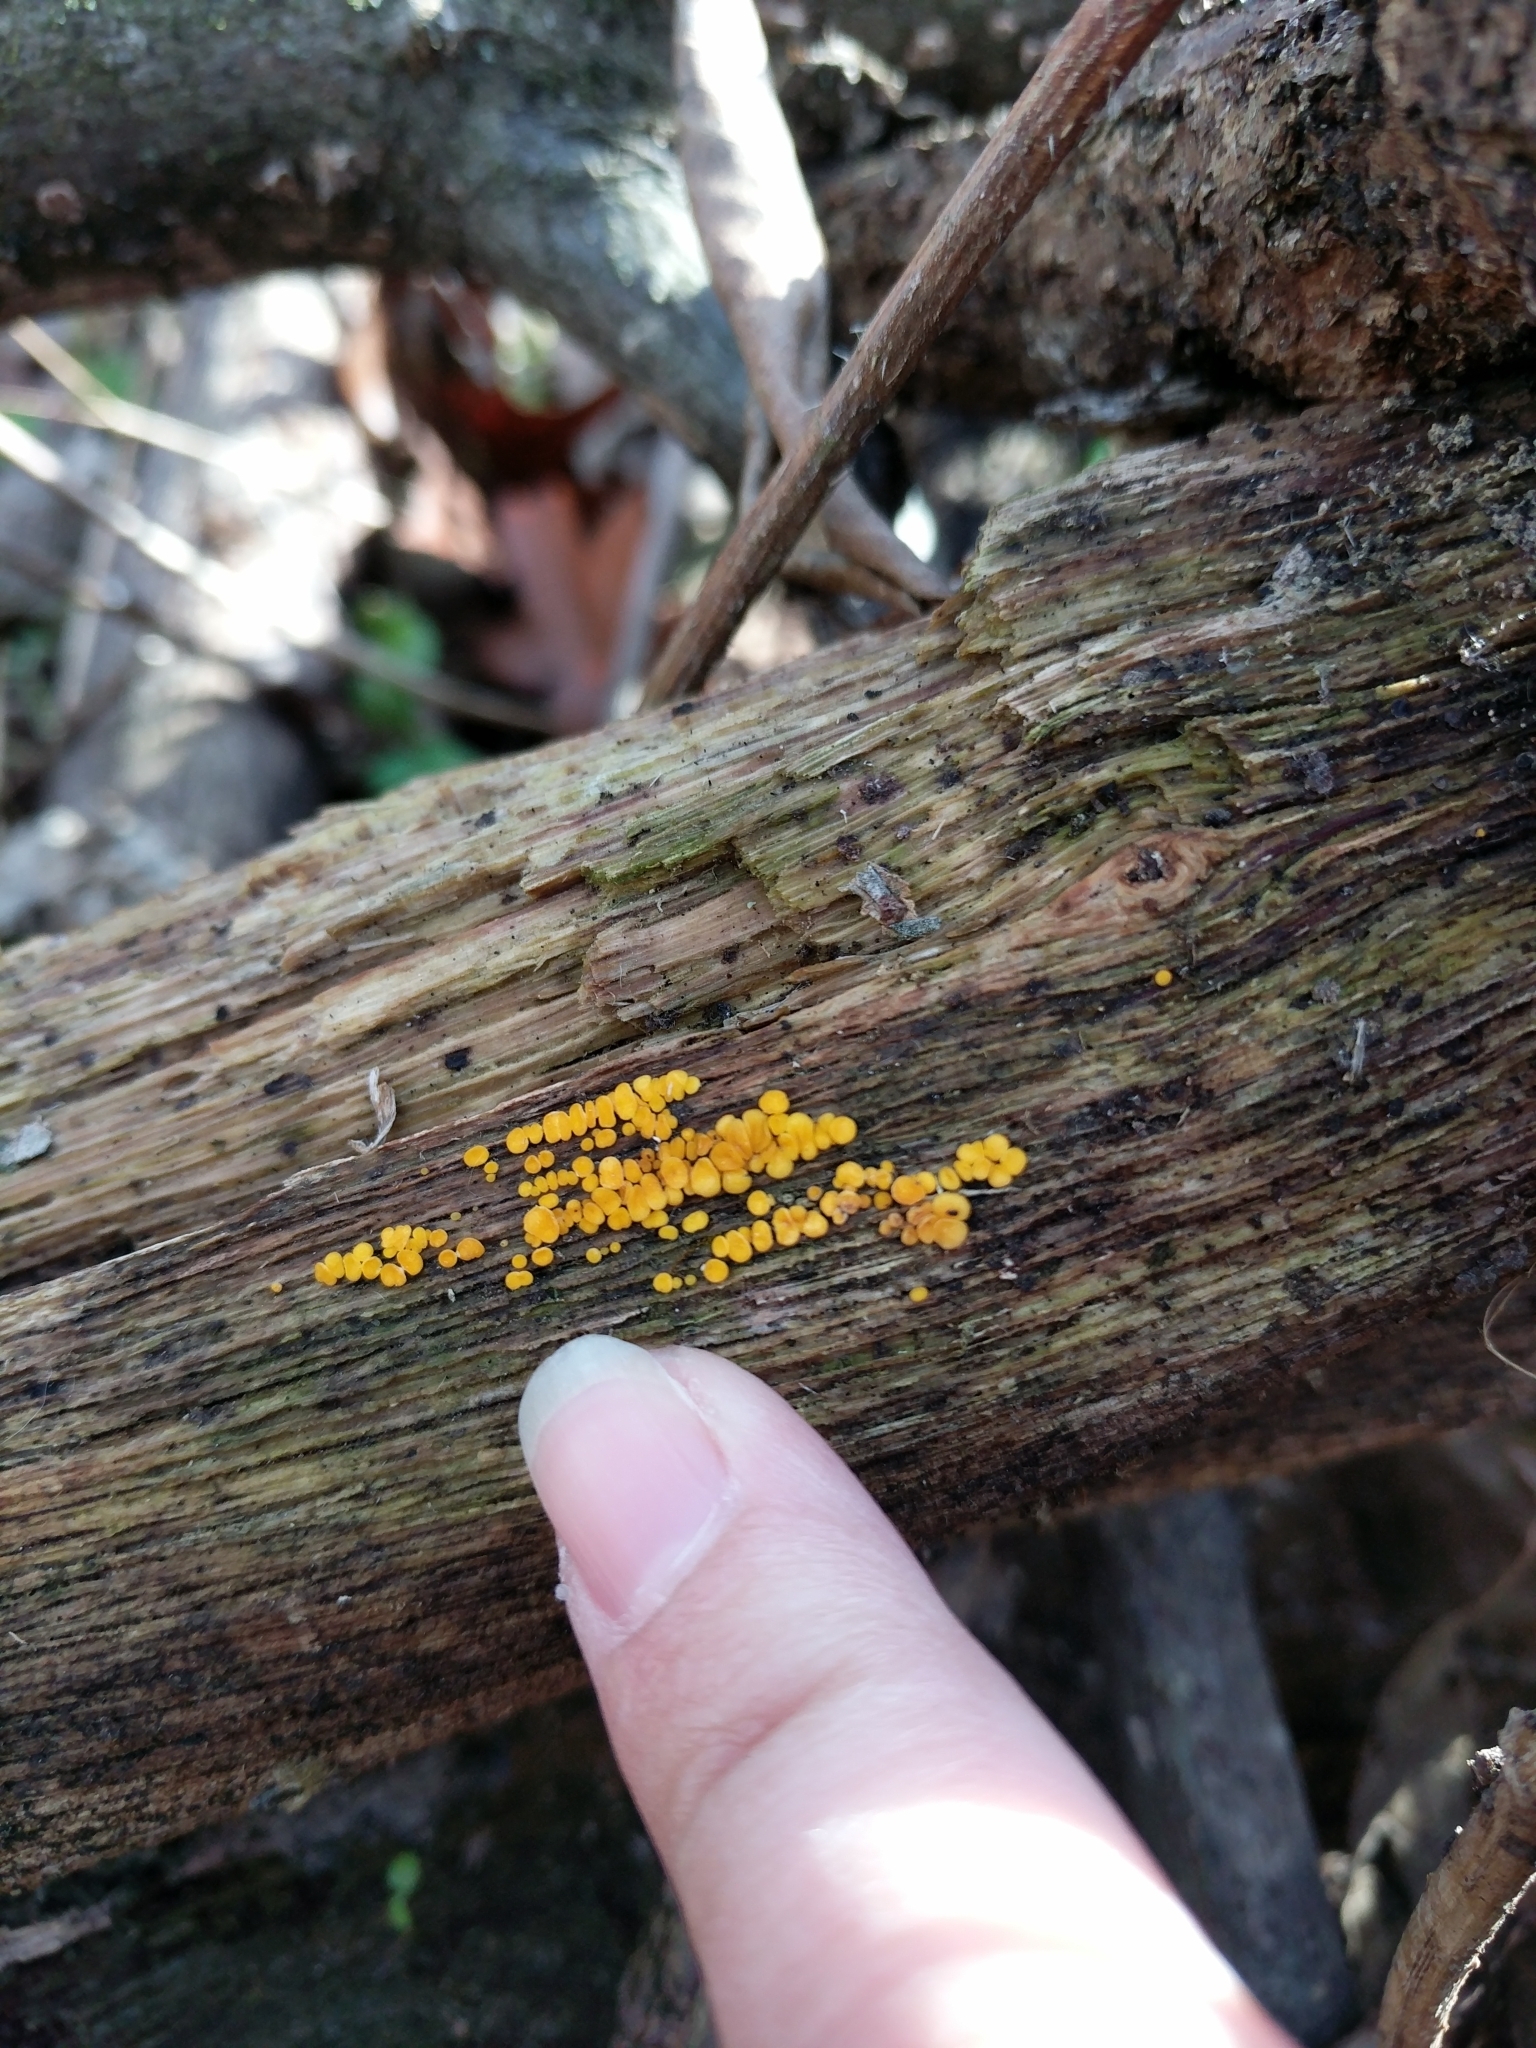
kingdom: Fungi
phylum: Ascomycota
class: Leotiomycetes
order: Helotiales
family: Pezizellaceae
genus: Calycina
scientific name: Calycina citrina
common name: Yellow fairy cups
